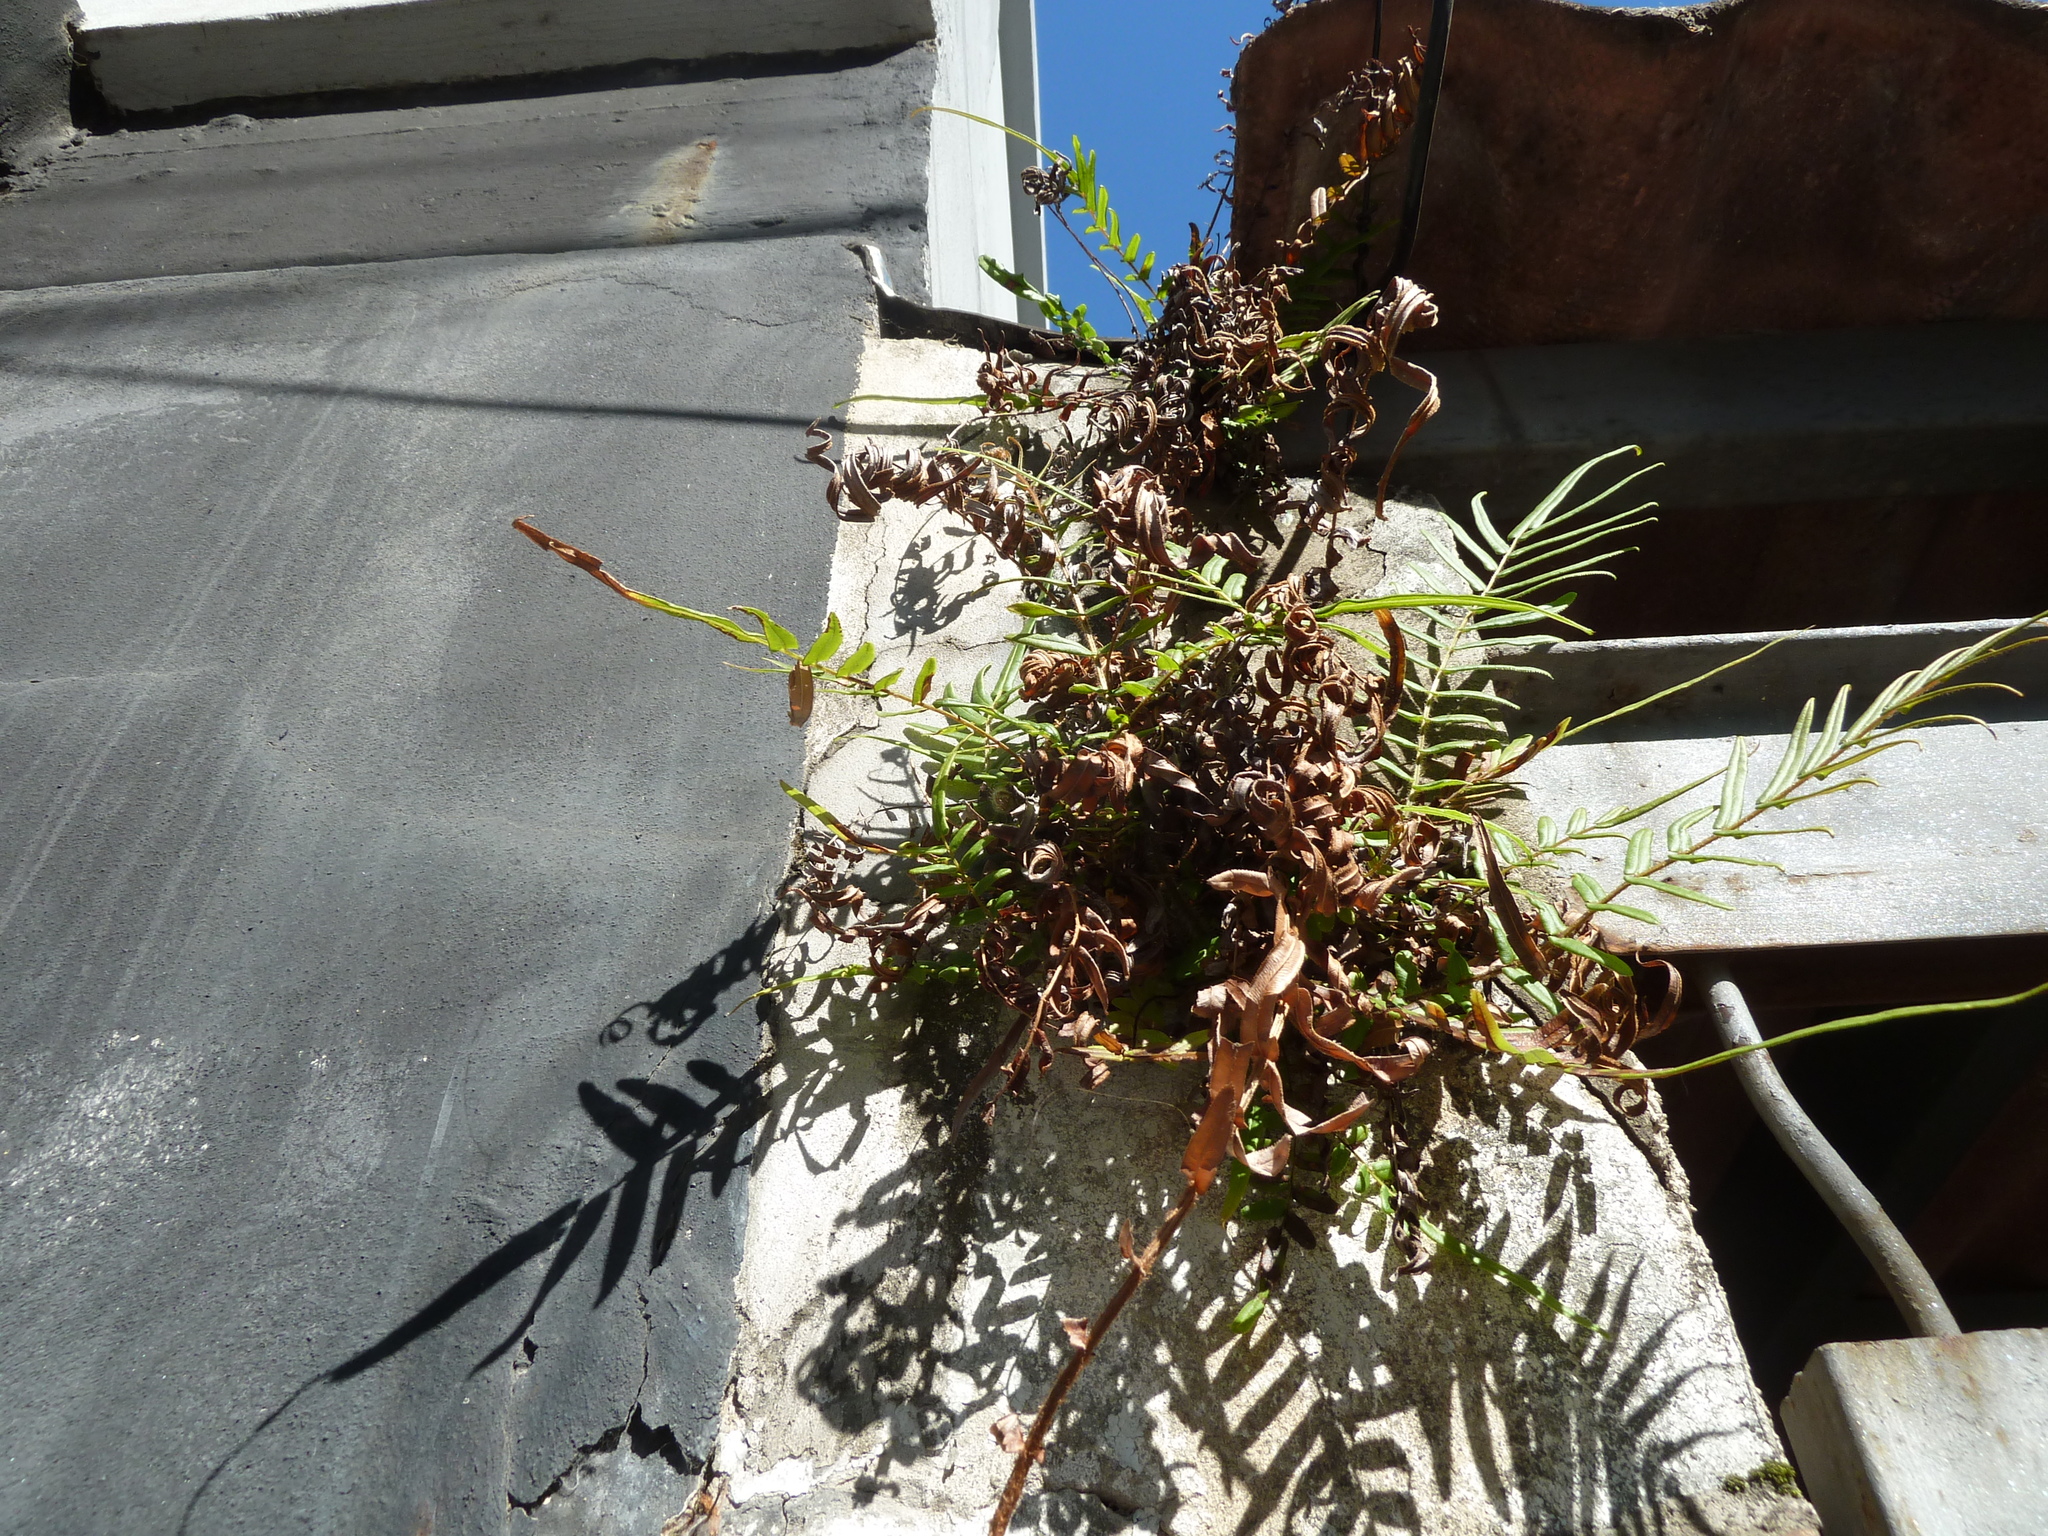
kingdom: Plantae
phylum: Tracheophyta
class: Polypodiopsida
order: Polypodiales
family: Pteridaceae
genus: Pteris
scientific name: Pteris vittata
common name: Ladder brake
